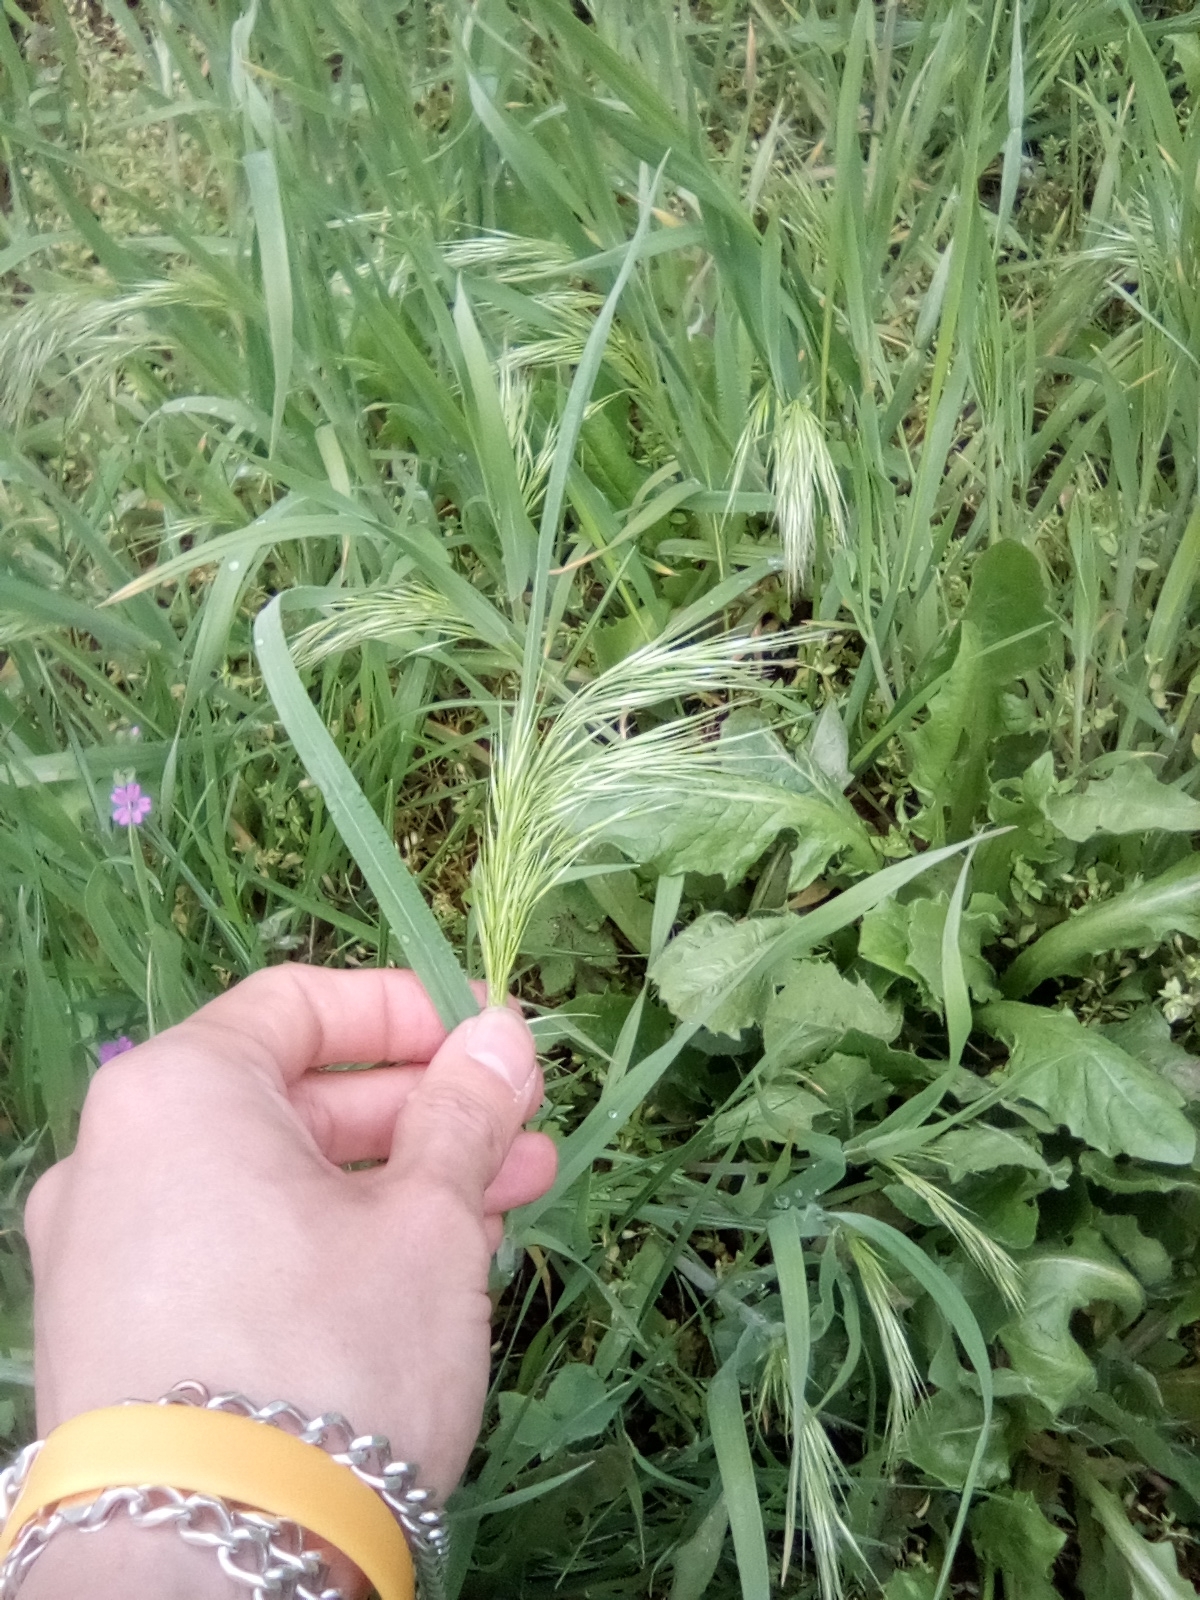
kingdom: Plantae
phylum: Tracheophyta
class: Liliopsida
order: Poales
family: Poaceae
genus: Bromus
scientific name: Bromus tectorum
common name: Cheatgrass
